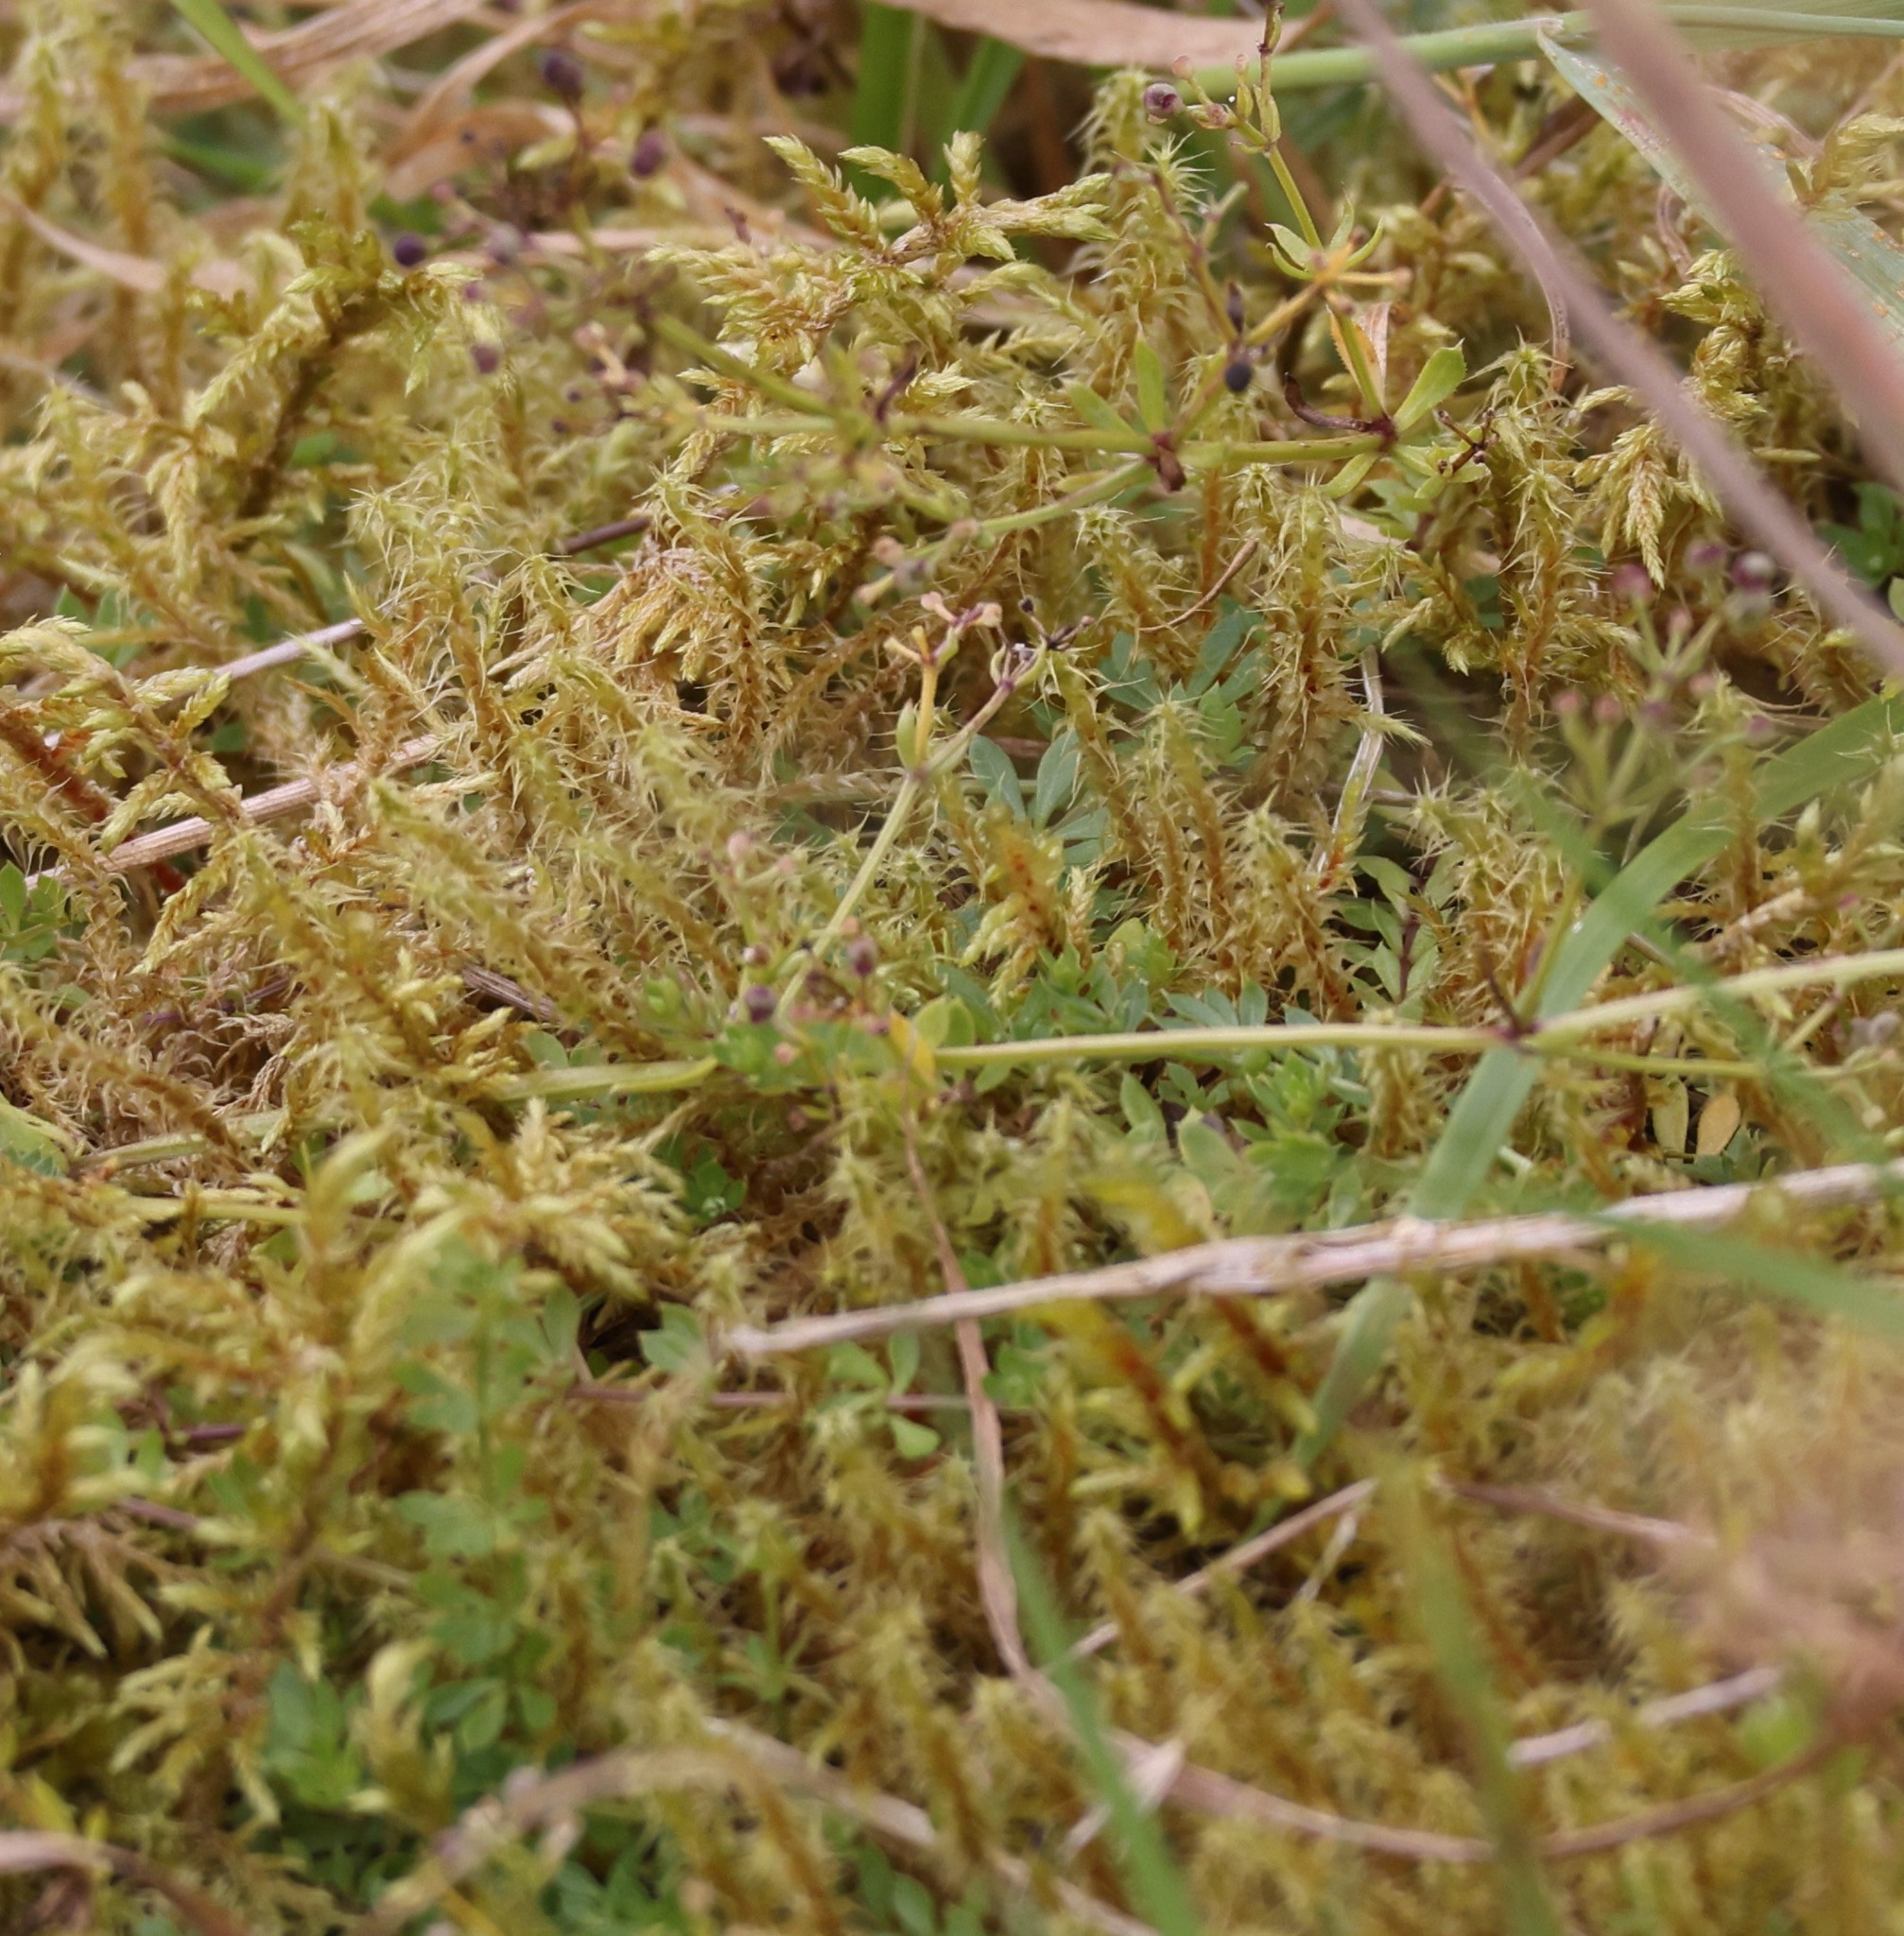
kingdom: Plantae
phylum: Bryophyta
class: Bryopsida
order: Hypnales
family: Hylocomiaceae
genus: Rhytidiadelphus
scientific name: Rhytidiadelphus squarrosus
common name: Springy turf-moss
